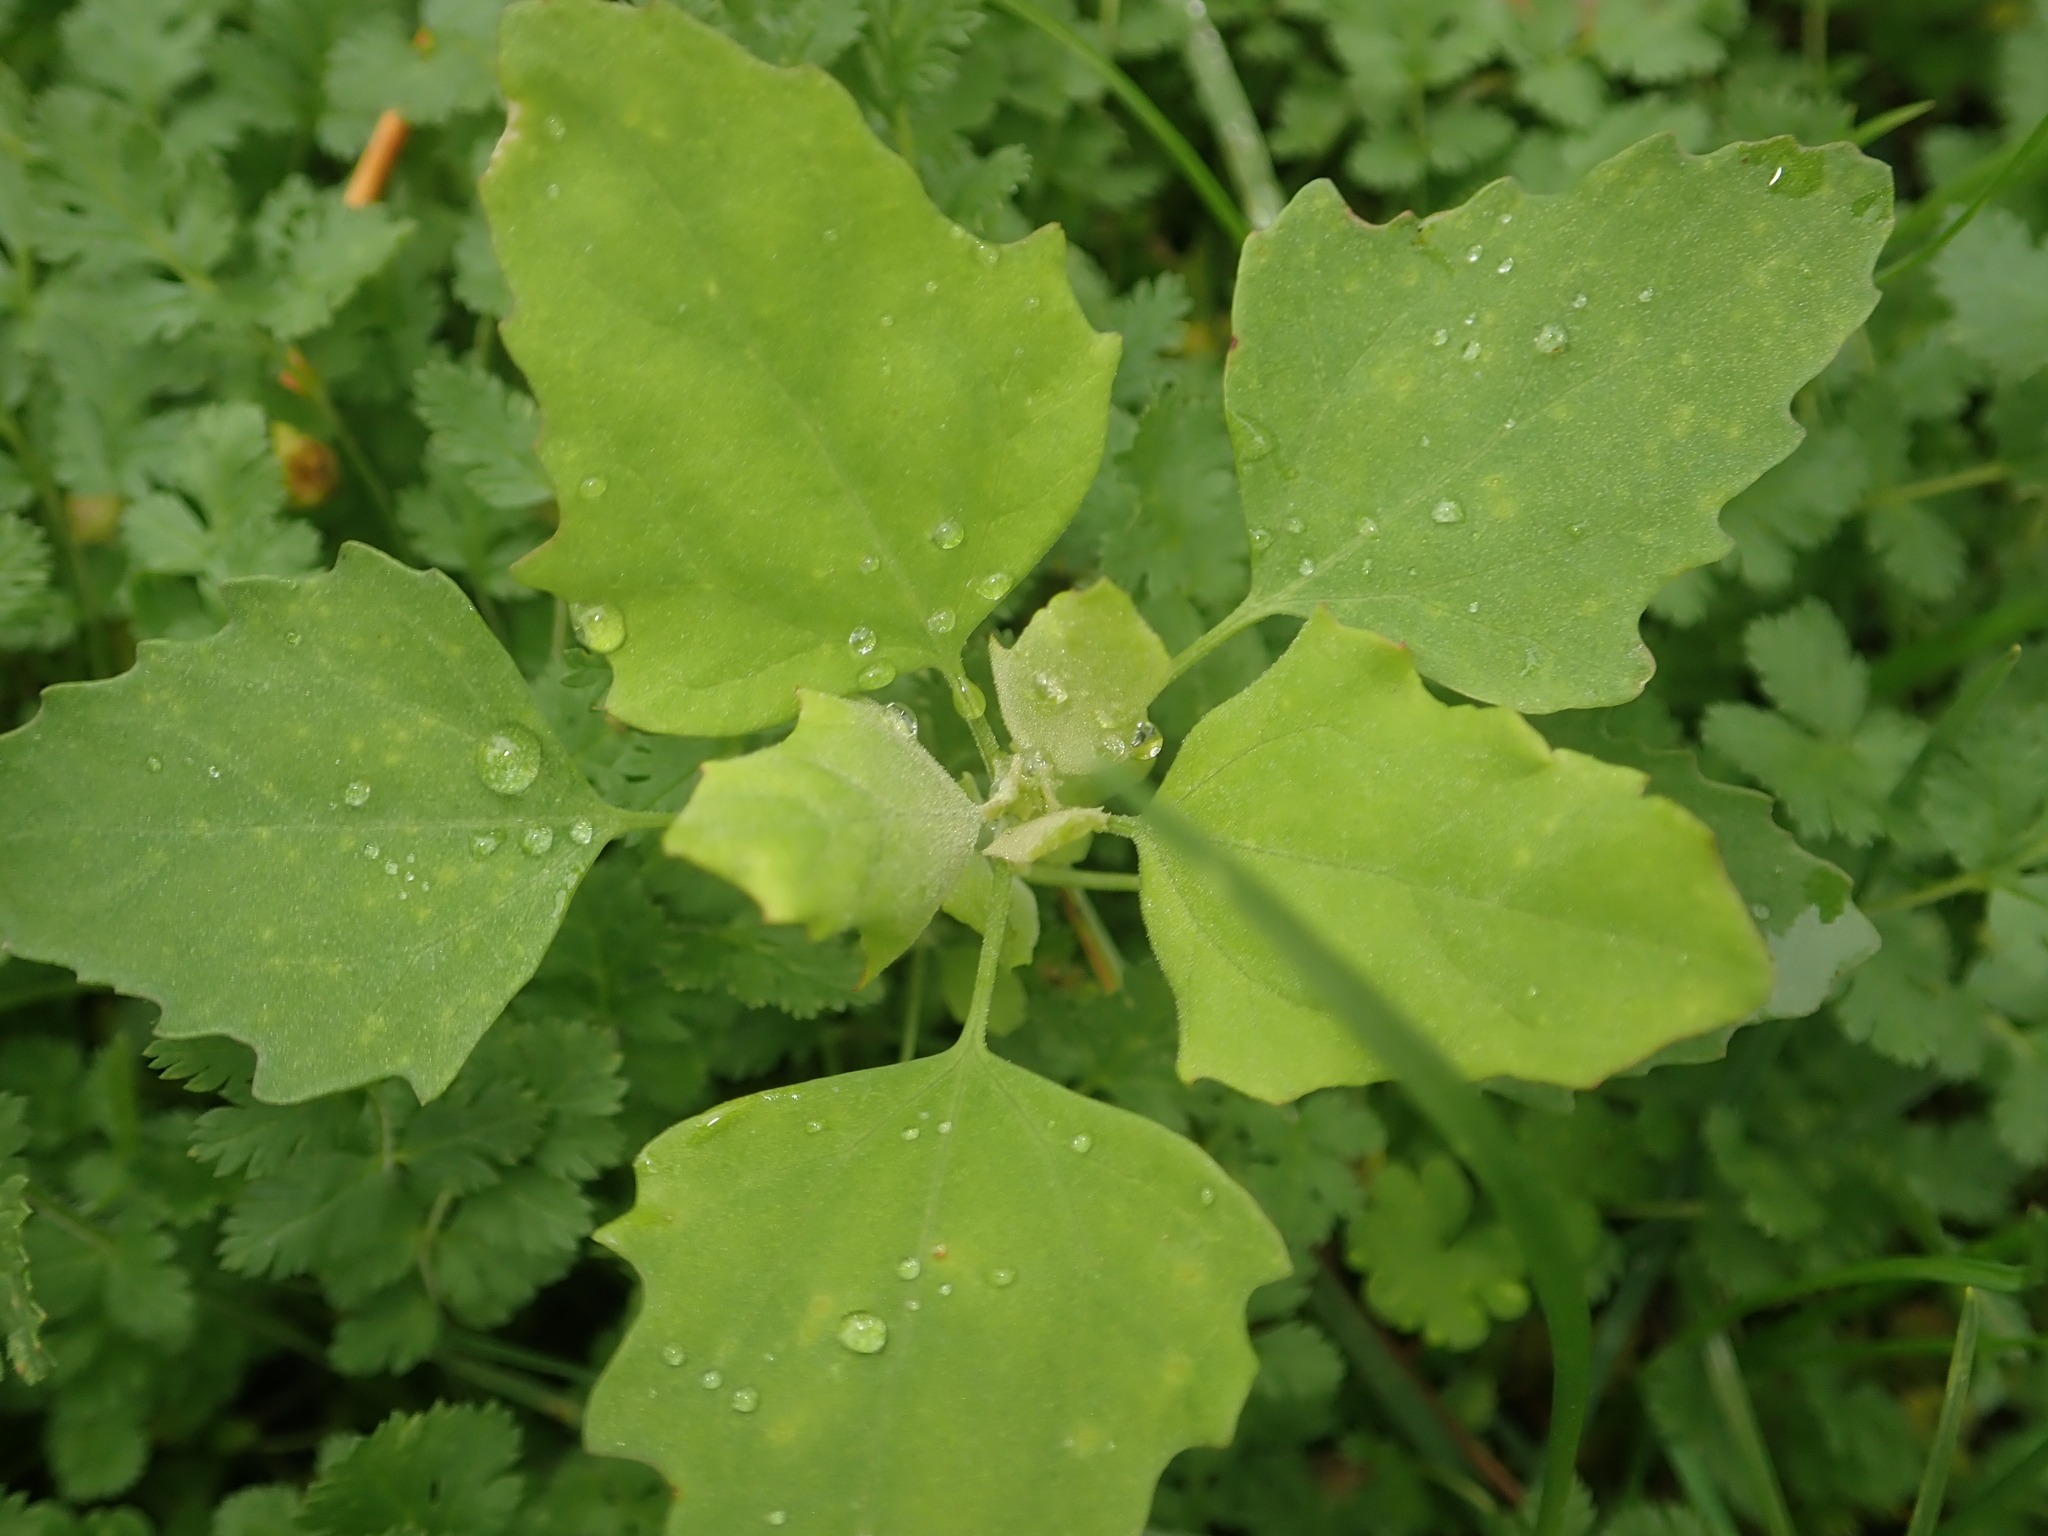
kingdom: Plantae
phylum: Tracheophyta
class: Magnoliopsida
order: Caryophyllales
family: Amaranthaceae
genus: Chenopodium
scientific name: Chenopodium album
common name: Fat-hen
